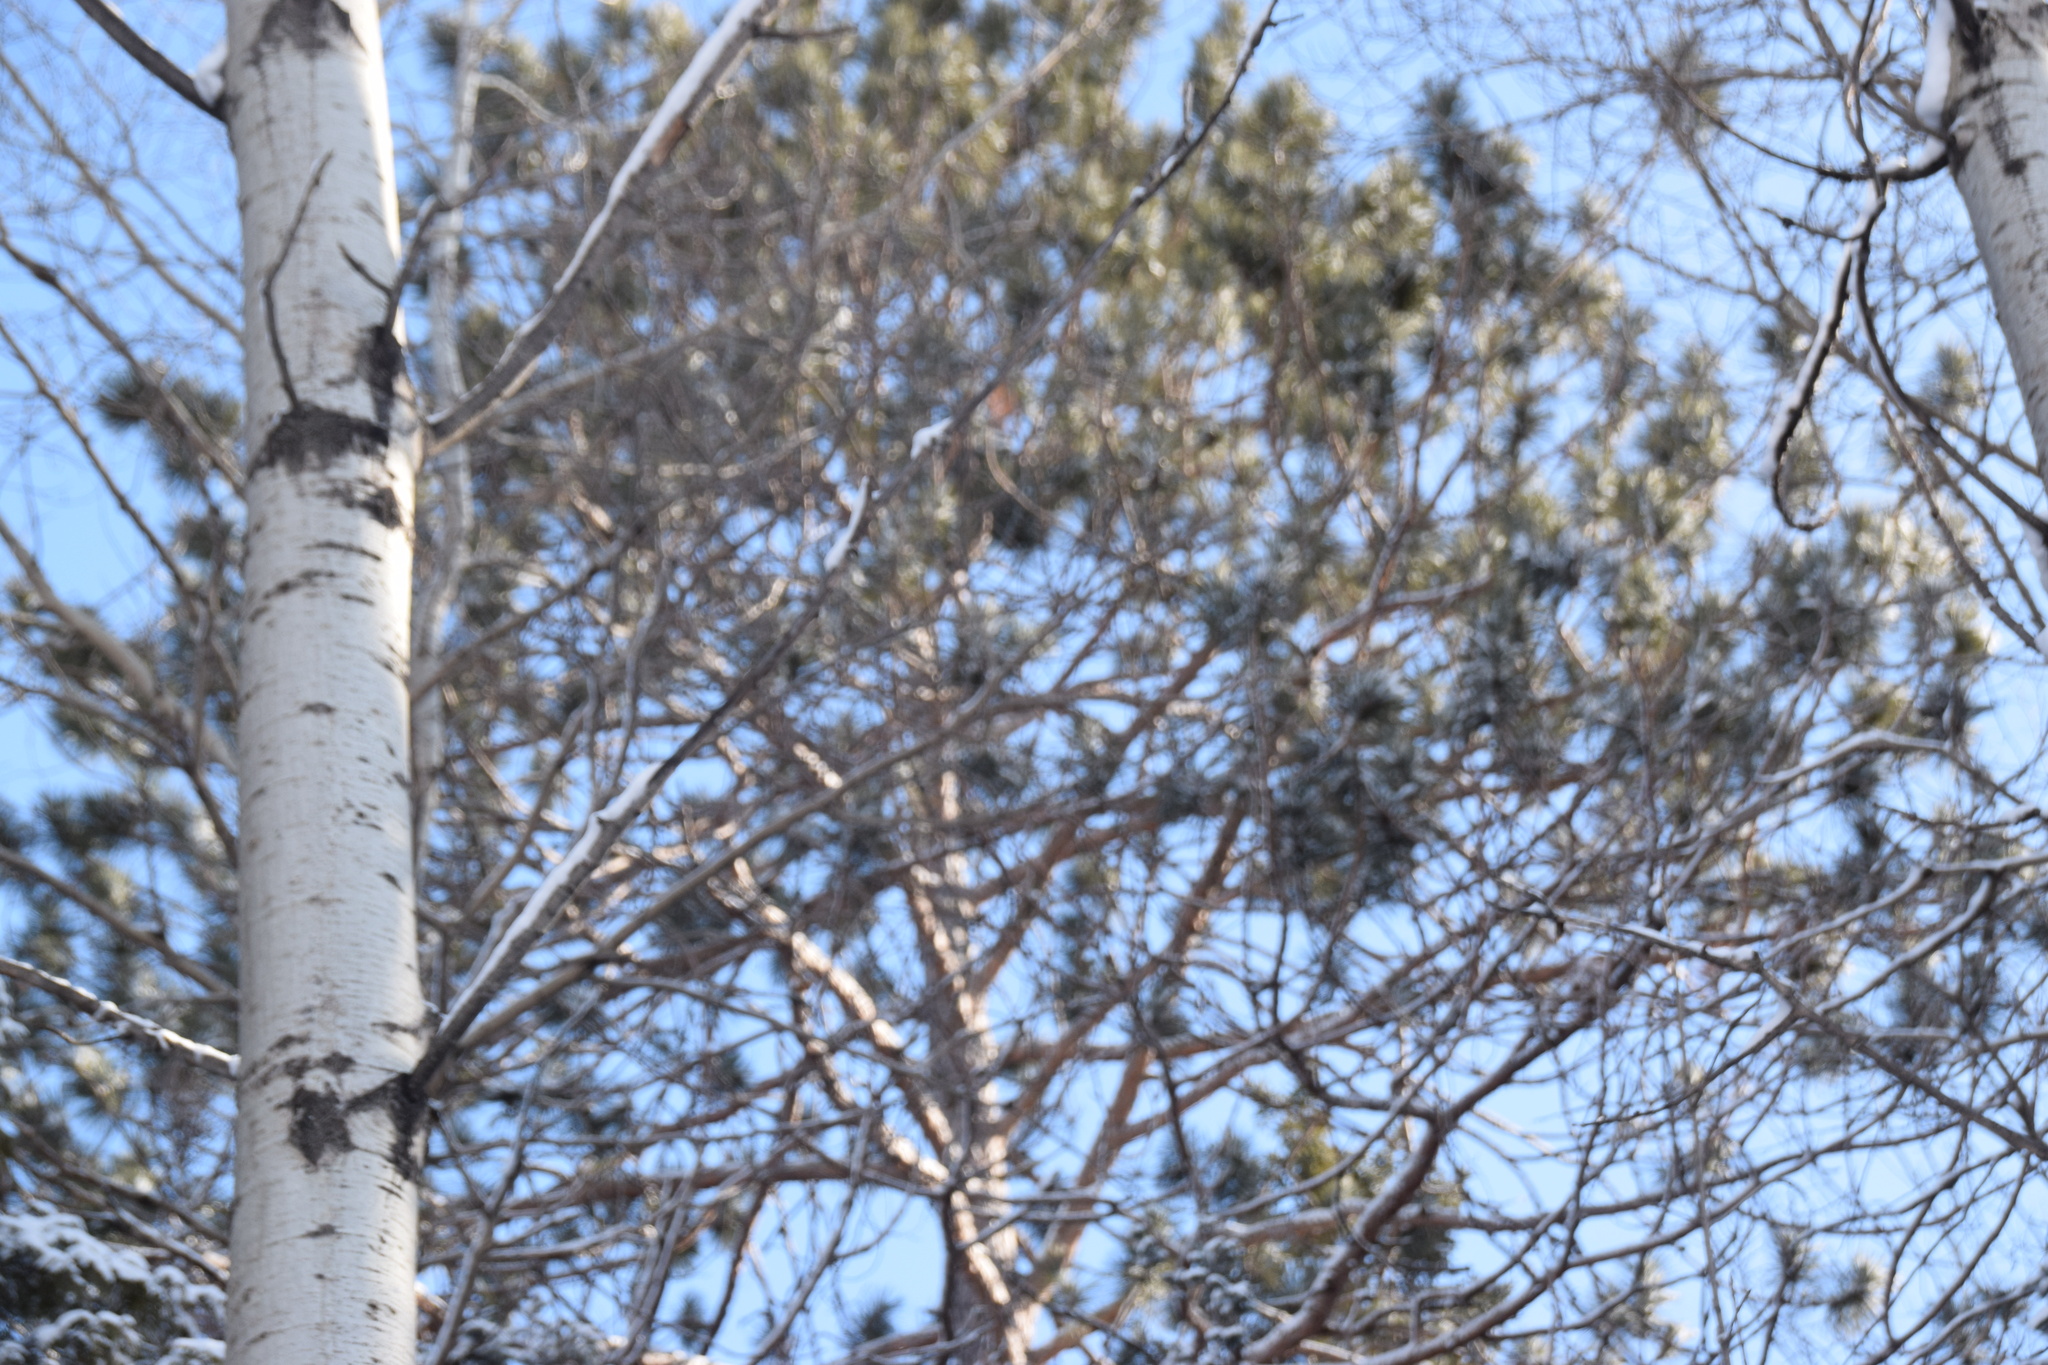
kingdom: Plantae
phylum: Tracheophyta
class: Pinopsida
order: Pinales
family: Pinaceae
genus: Pinus
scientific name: Pinus resinosa
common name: Norway pine
